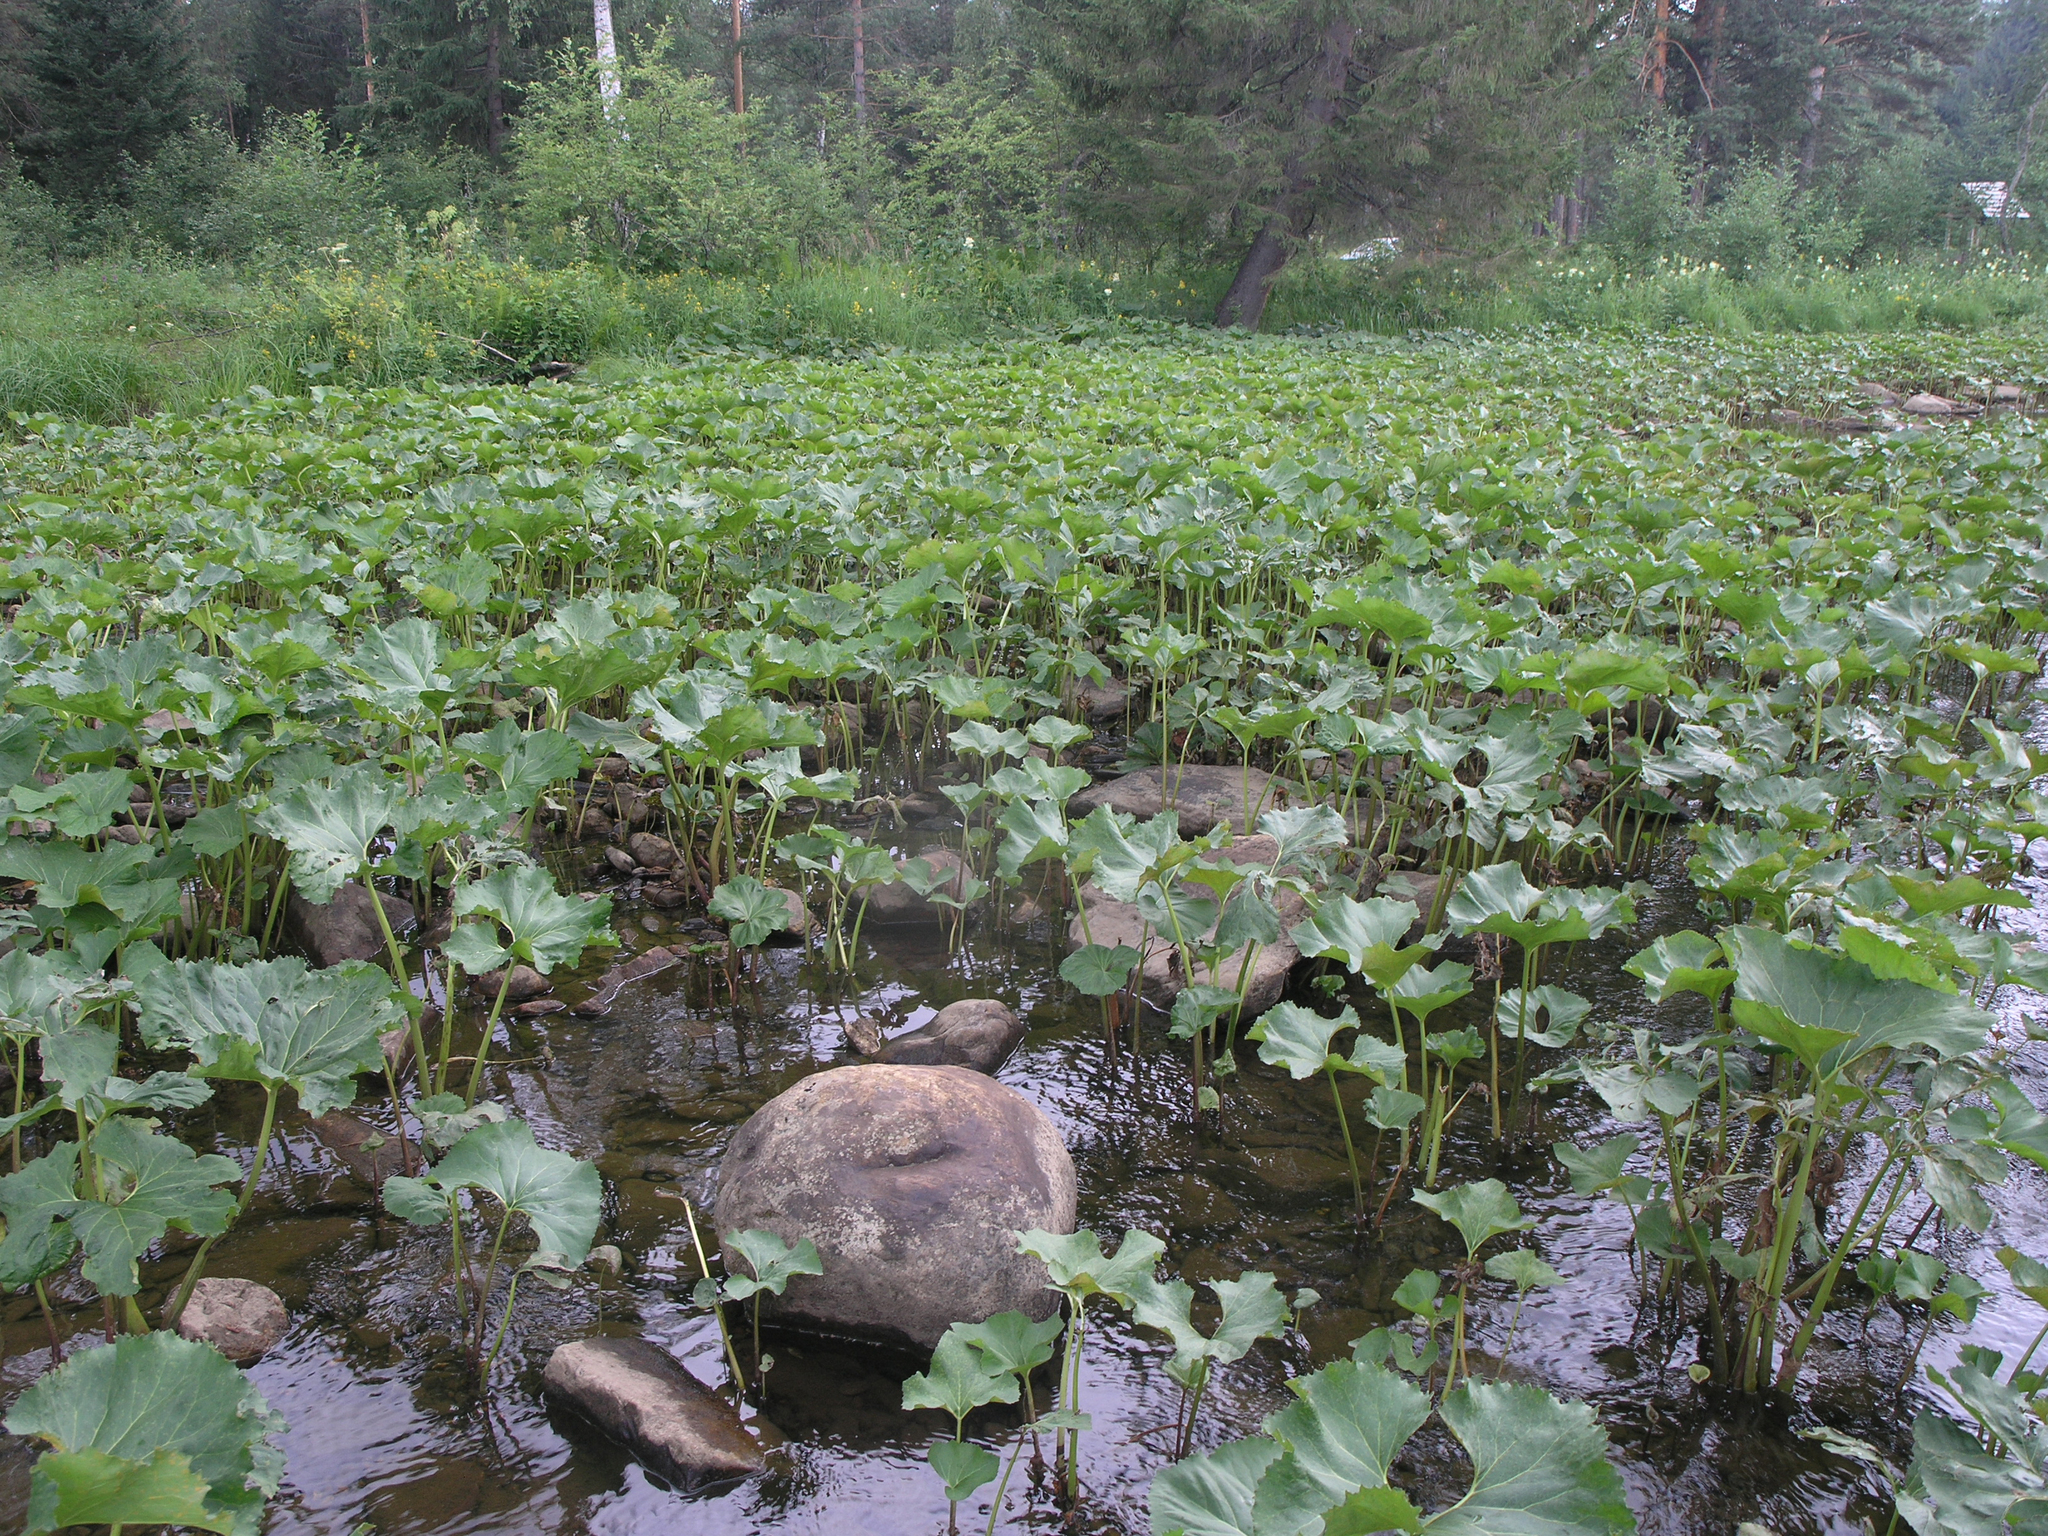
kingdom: Plantae
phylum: Tracheophyta
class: Magnoliopsida
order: Asterales
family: Asteraceae
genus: Petasites
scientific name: Petasites radiatus
